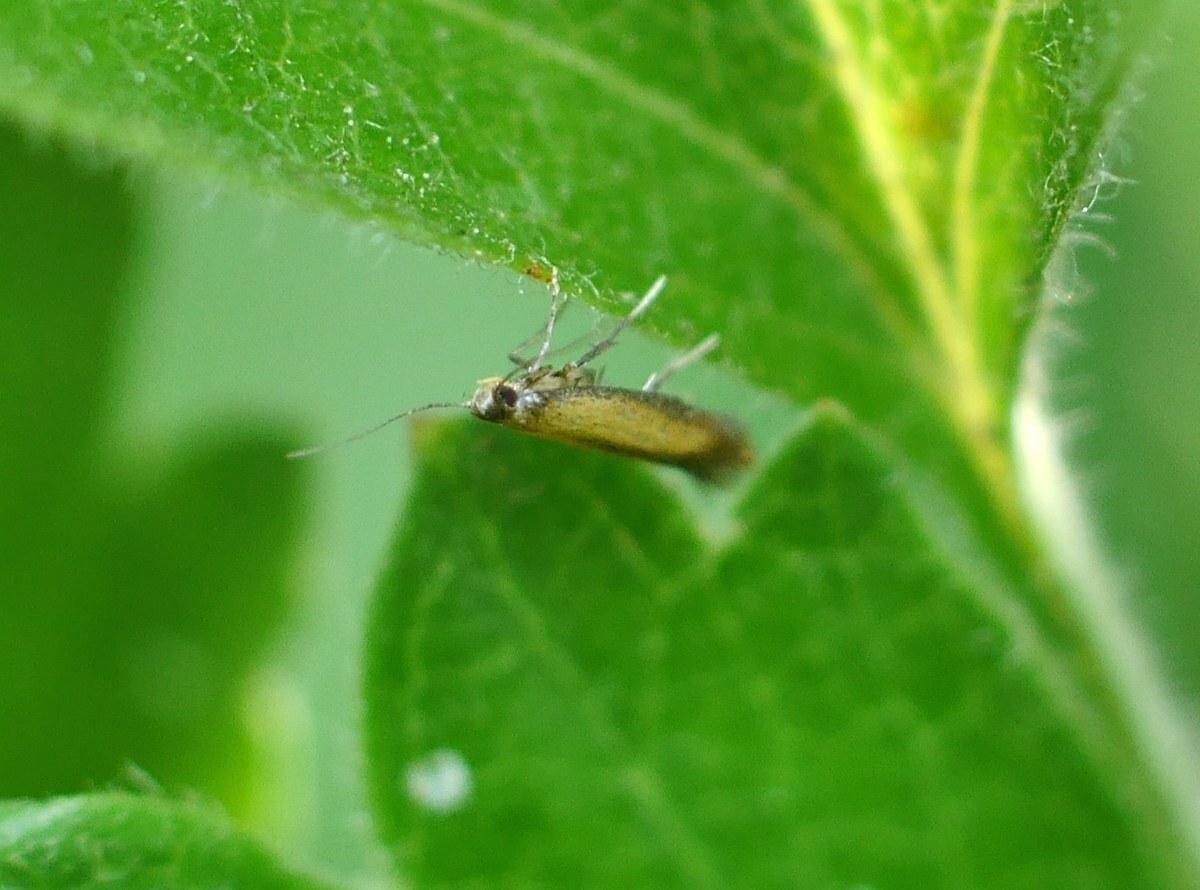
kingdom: Animalia
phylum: Arthropoda
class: Insecta
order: Lepidoptera
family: Tischeriidae
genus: Coptotriche
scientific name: Coptotriche marginea
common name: Bordered carl
